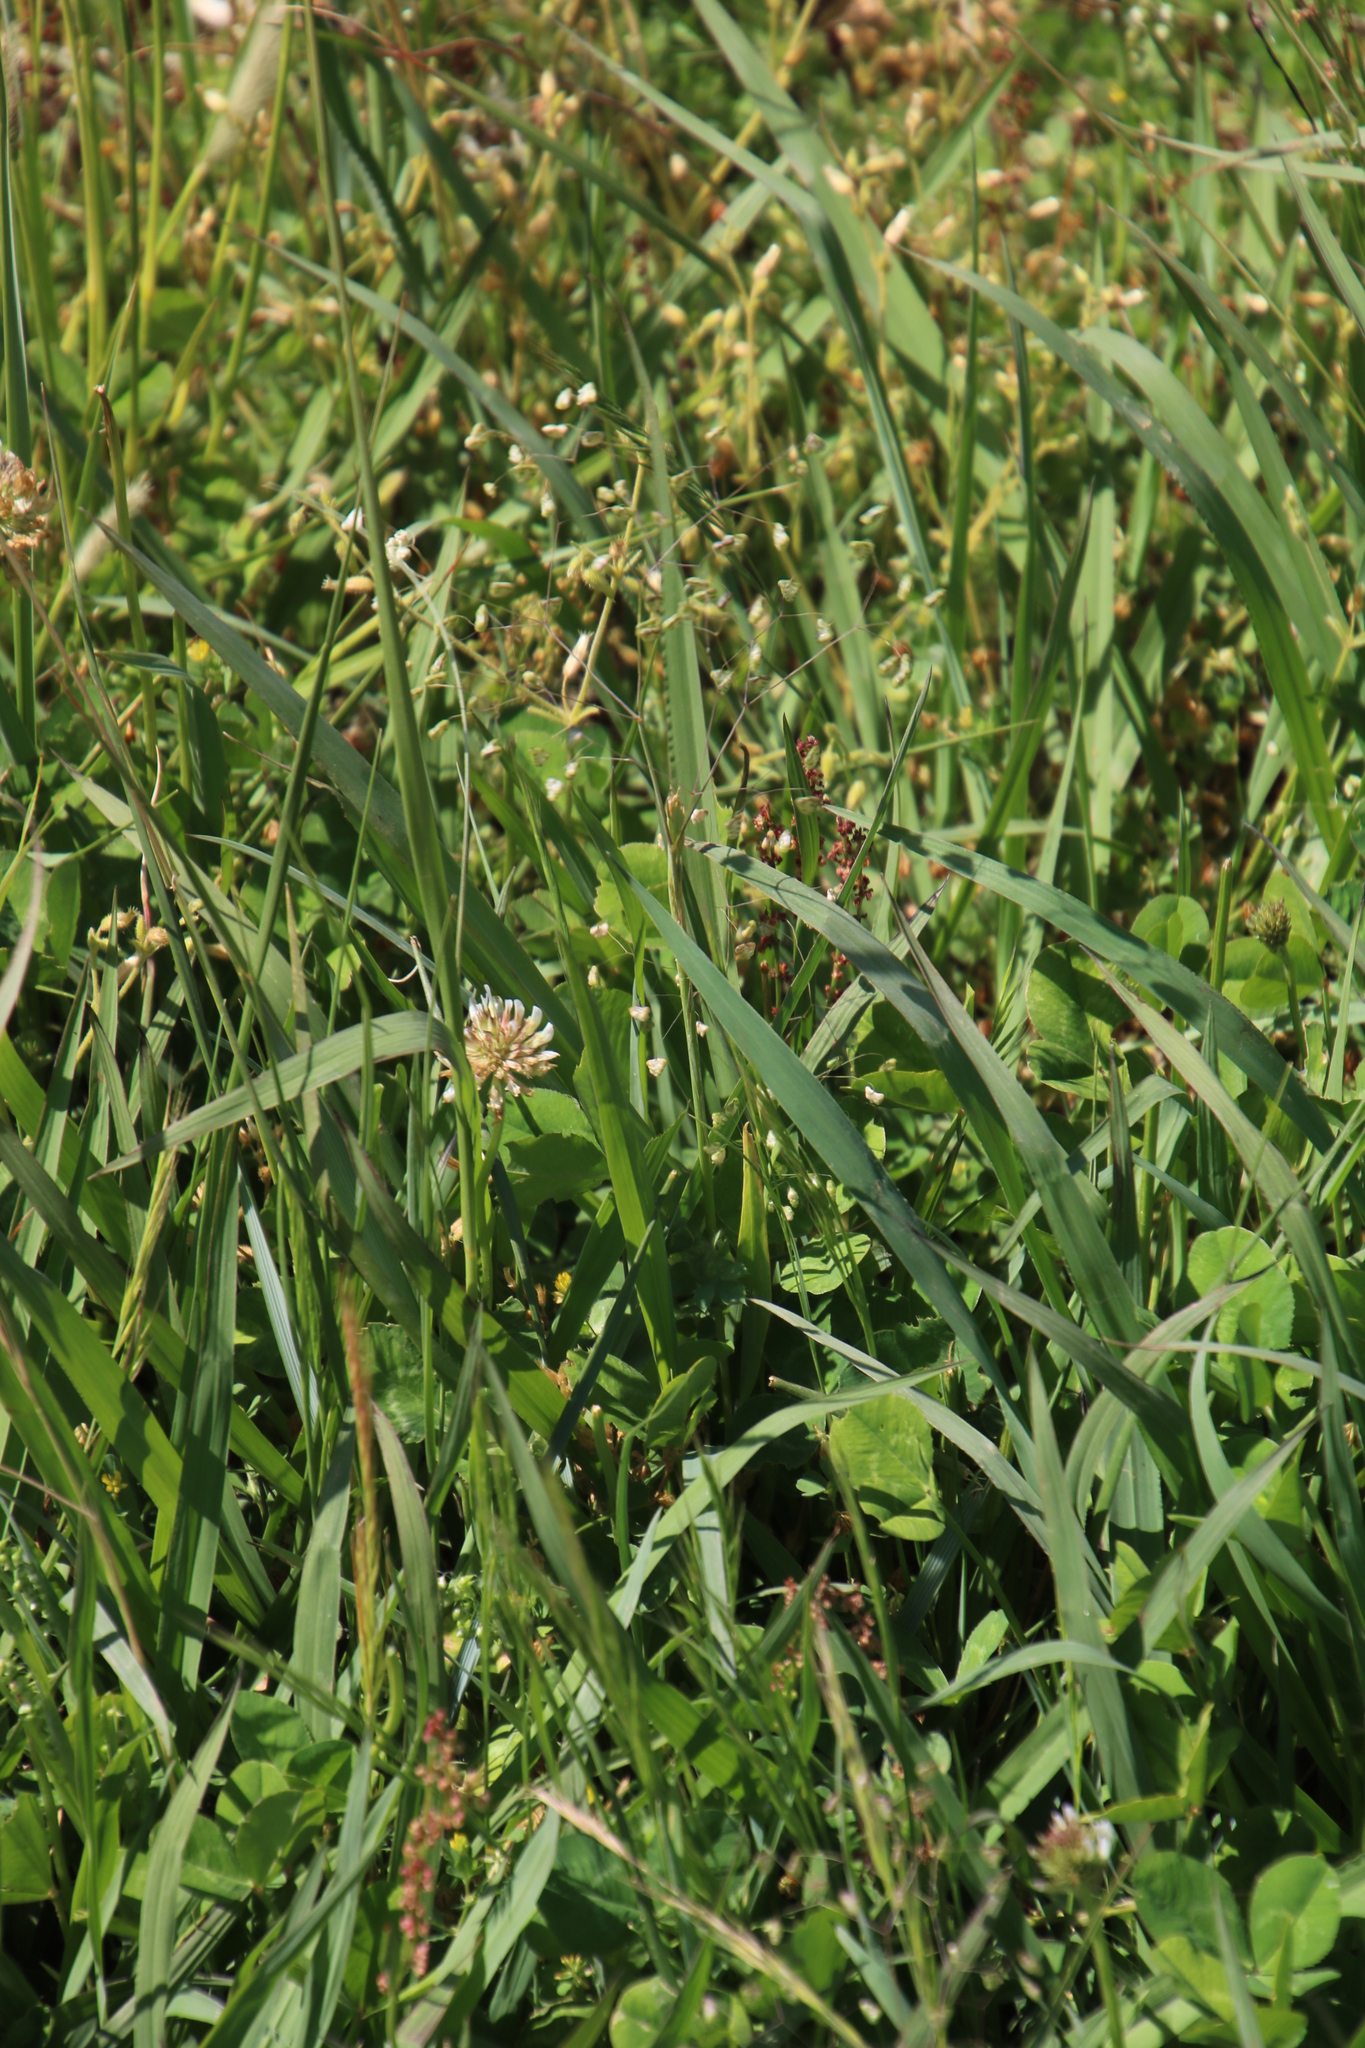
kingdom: Plantae
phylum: Tracheophyta
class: Liliopsida
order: Poales
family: Poaceae
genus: Briza
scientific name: Briza minor
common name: Lesser quaking-grass
